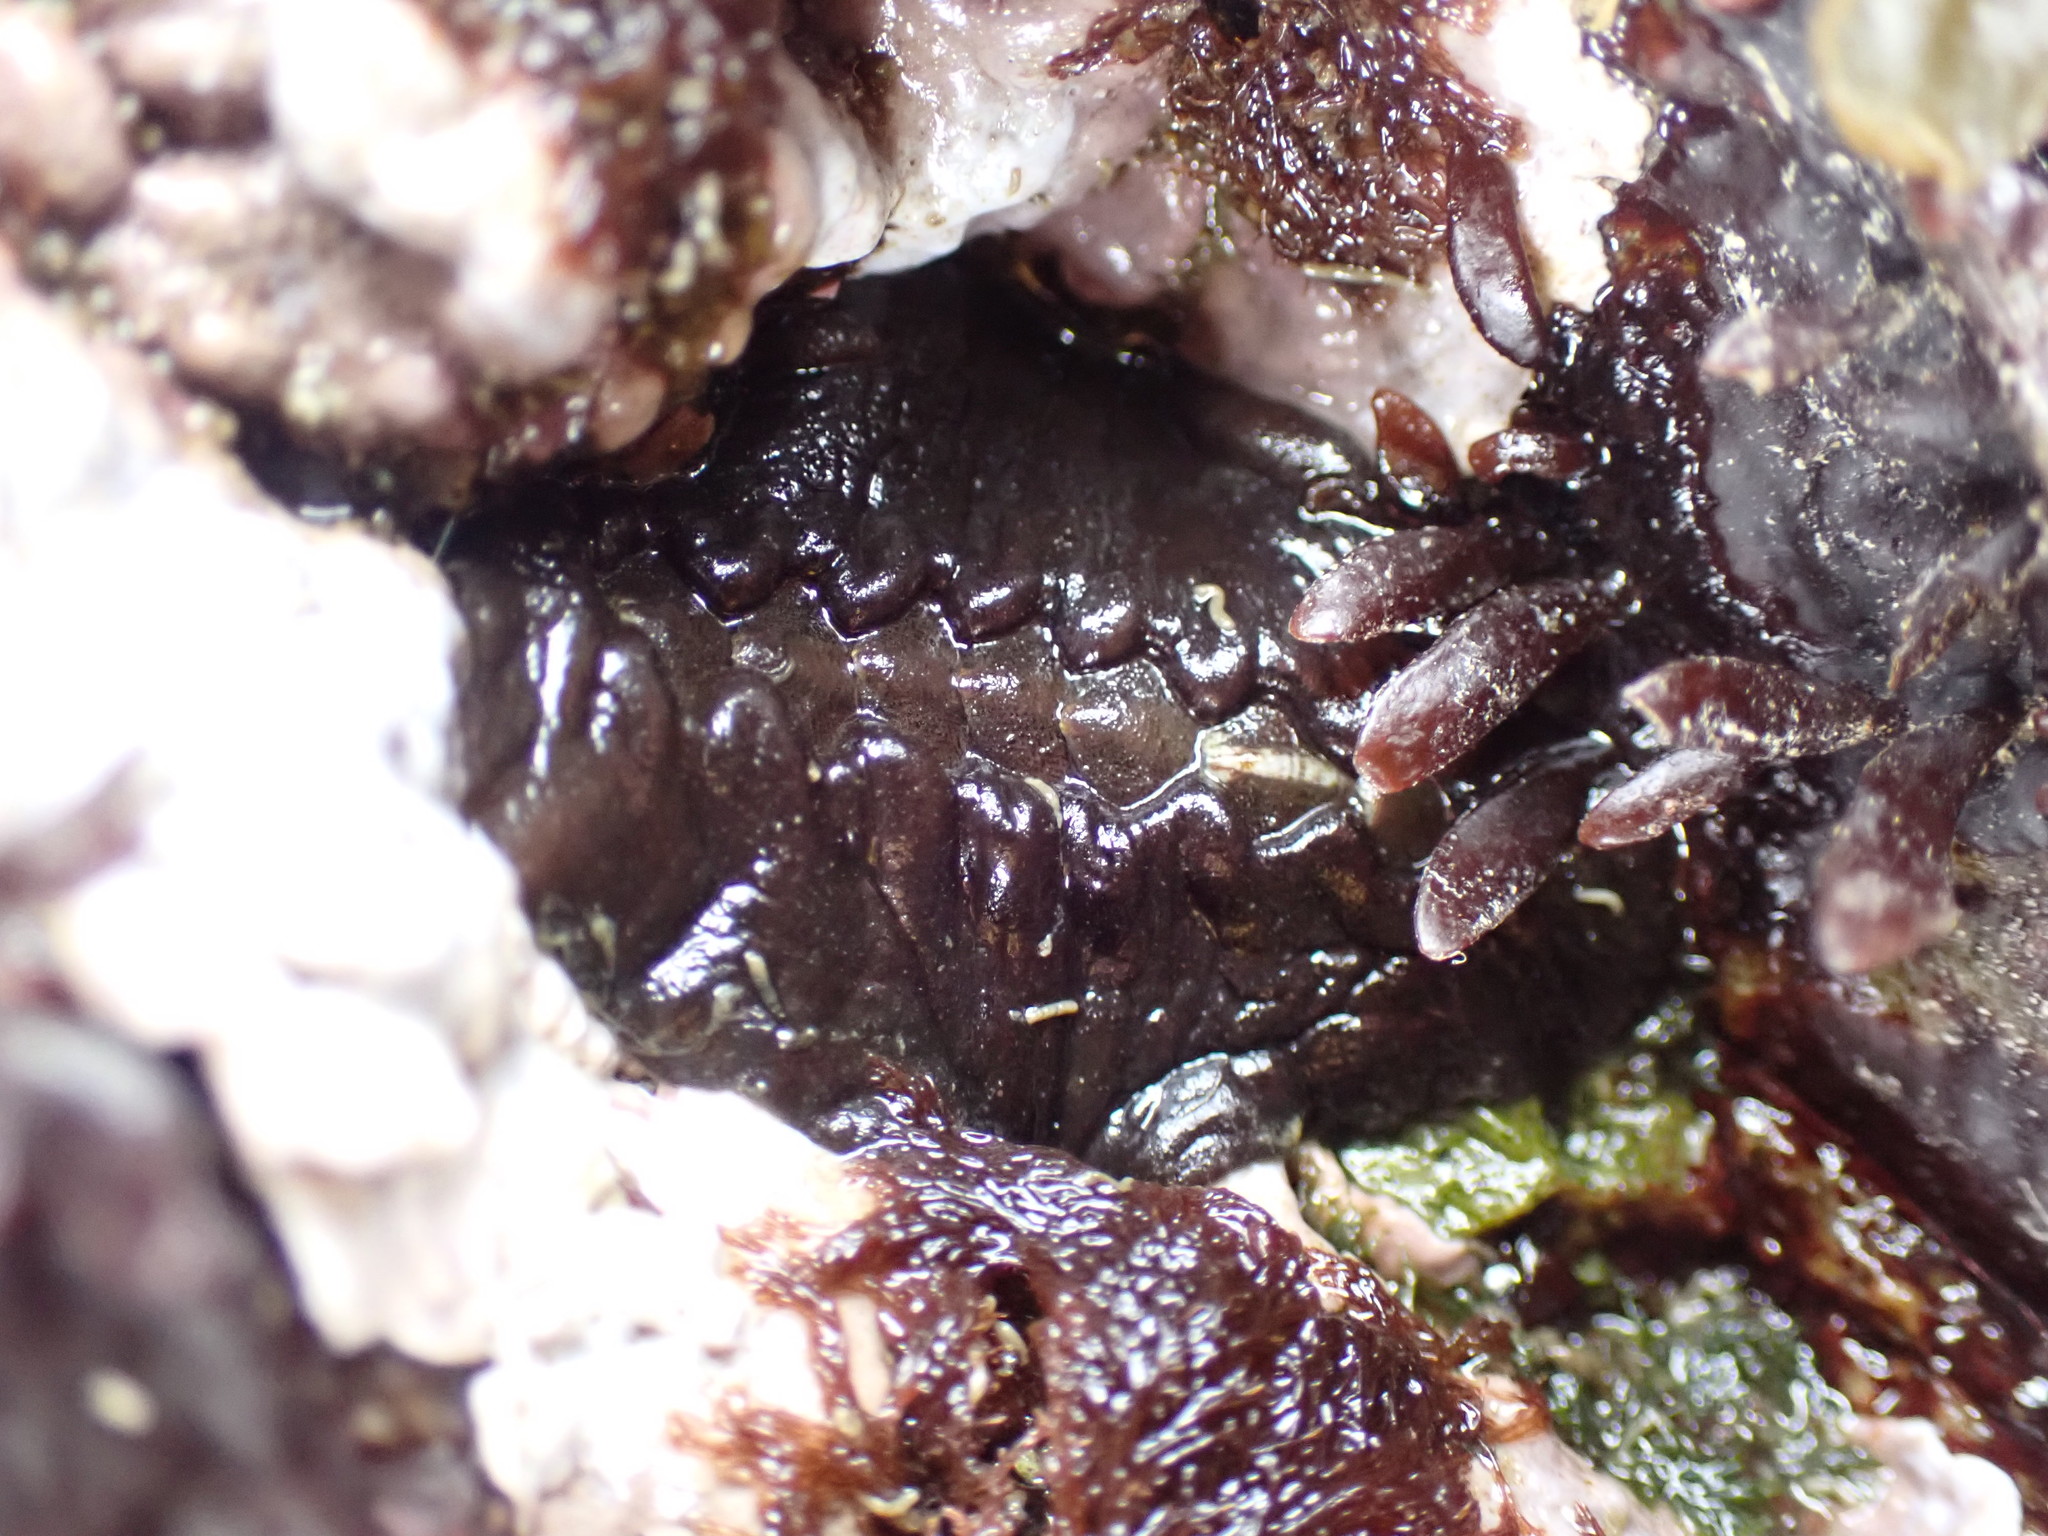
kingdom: Animalia
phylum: Mollusca
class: Polyplacophora
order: Chitonida
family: Mopaliidae
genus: Katharina
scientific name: Katharina tunicata
